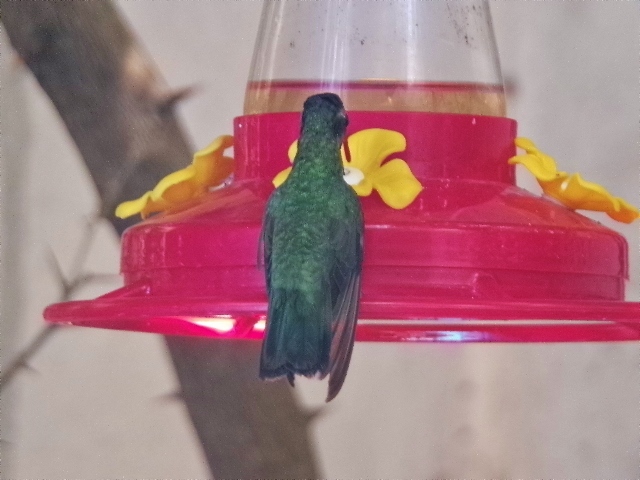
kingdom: Animalia
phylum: Chordata
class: Aves
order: Apodiformes
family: Trochilidae
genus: Cynanthus
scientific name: Cynanthus latirostris
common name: Broad-billed hummingbird
